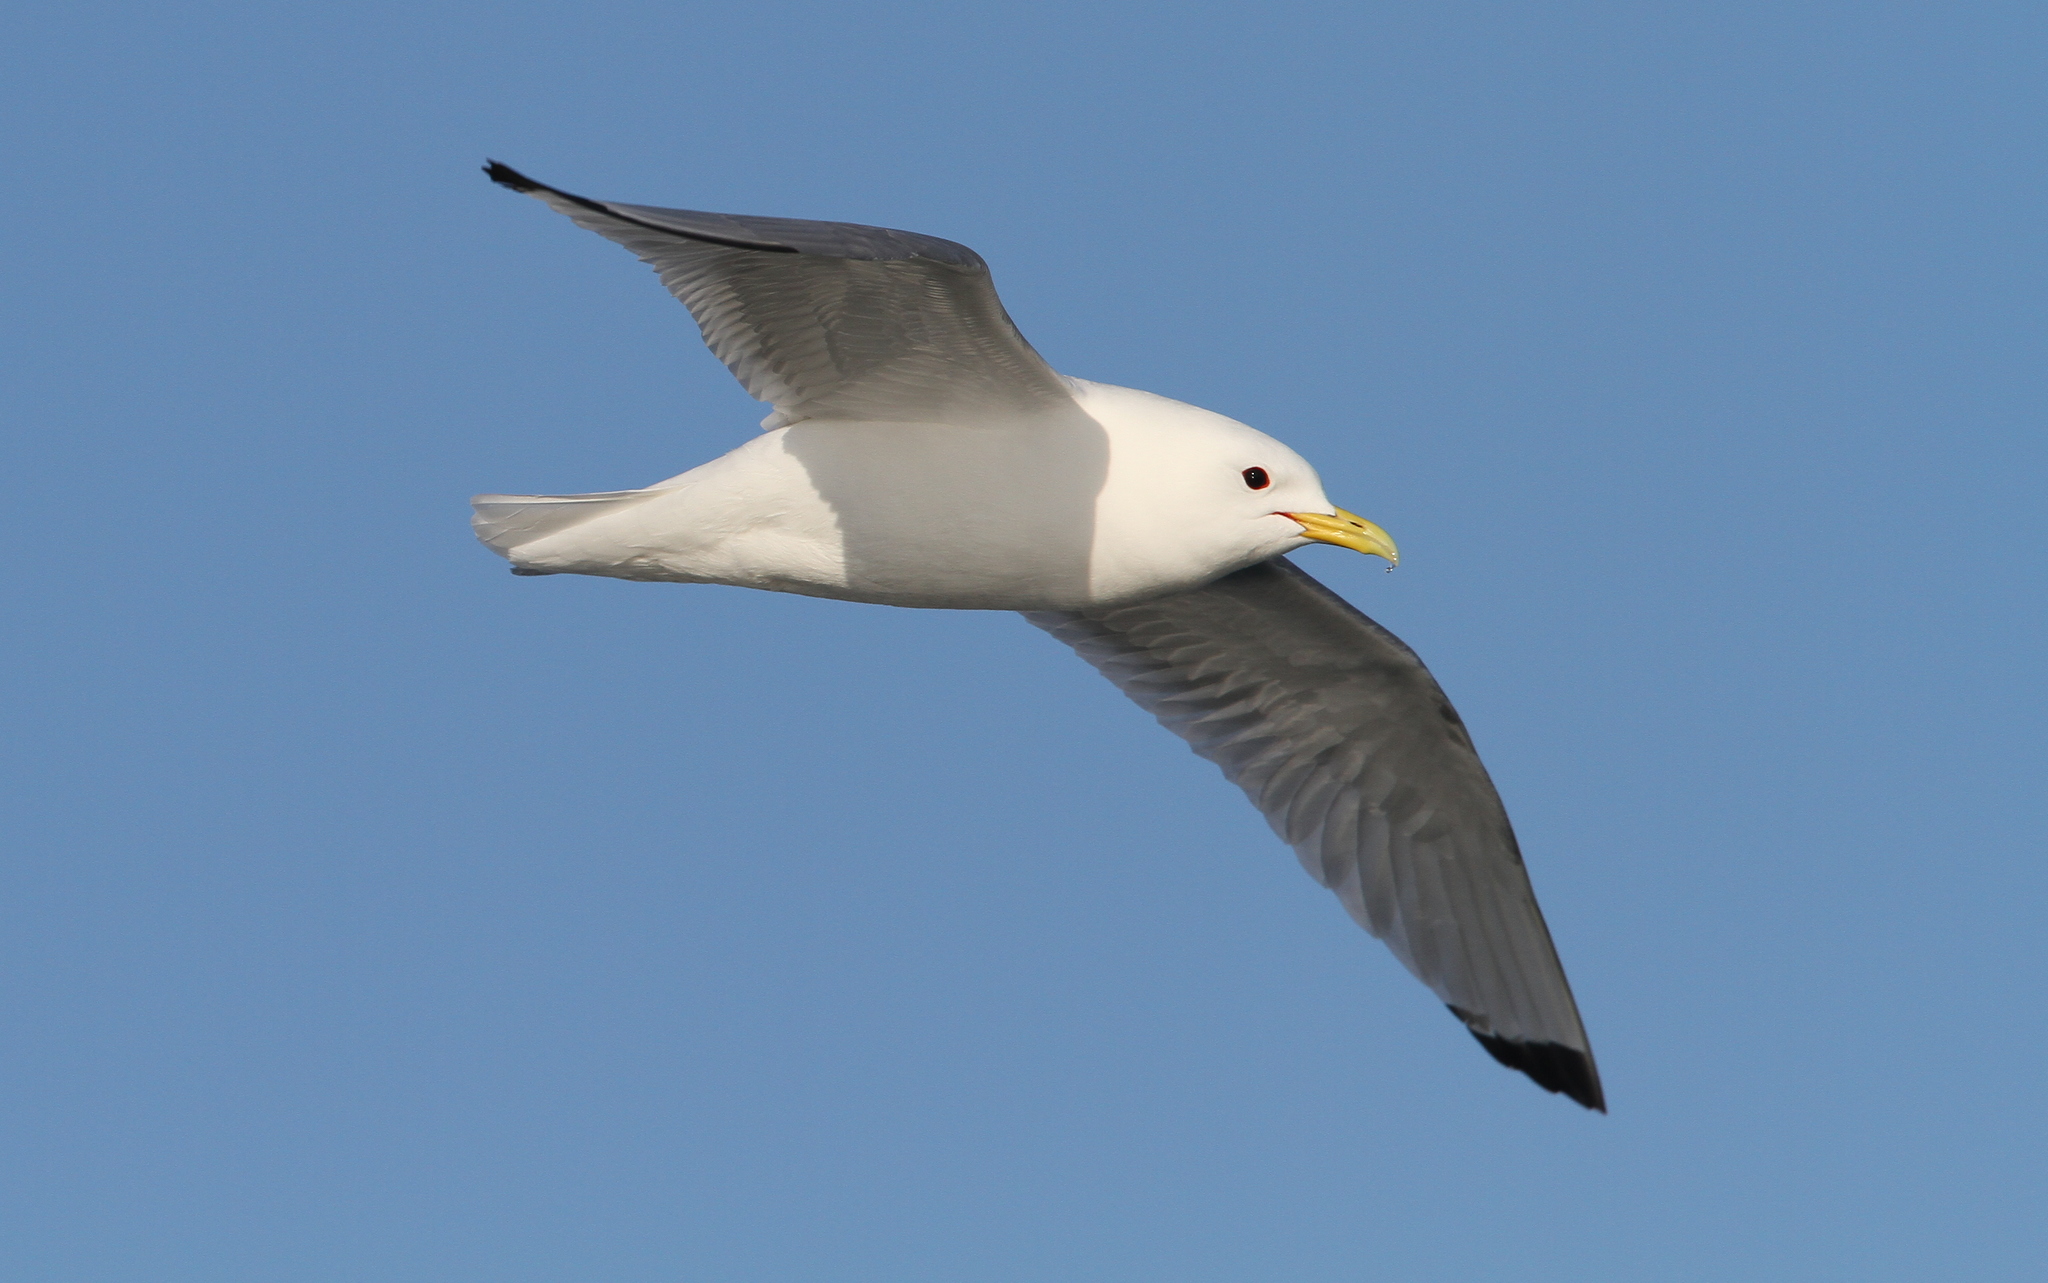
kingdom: Animalia
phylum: Chordata
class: Aves
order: Charadriiformes
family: Laridae
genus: Rissa
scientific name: Rissa tridactyla
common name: Black-legged kittiwake
